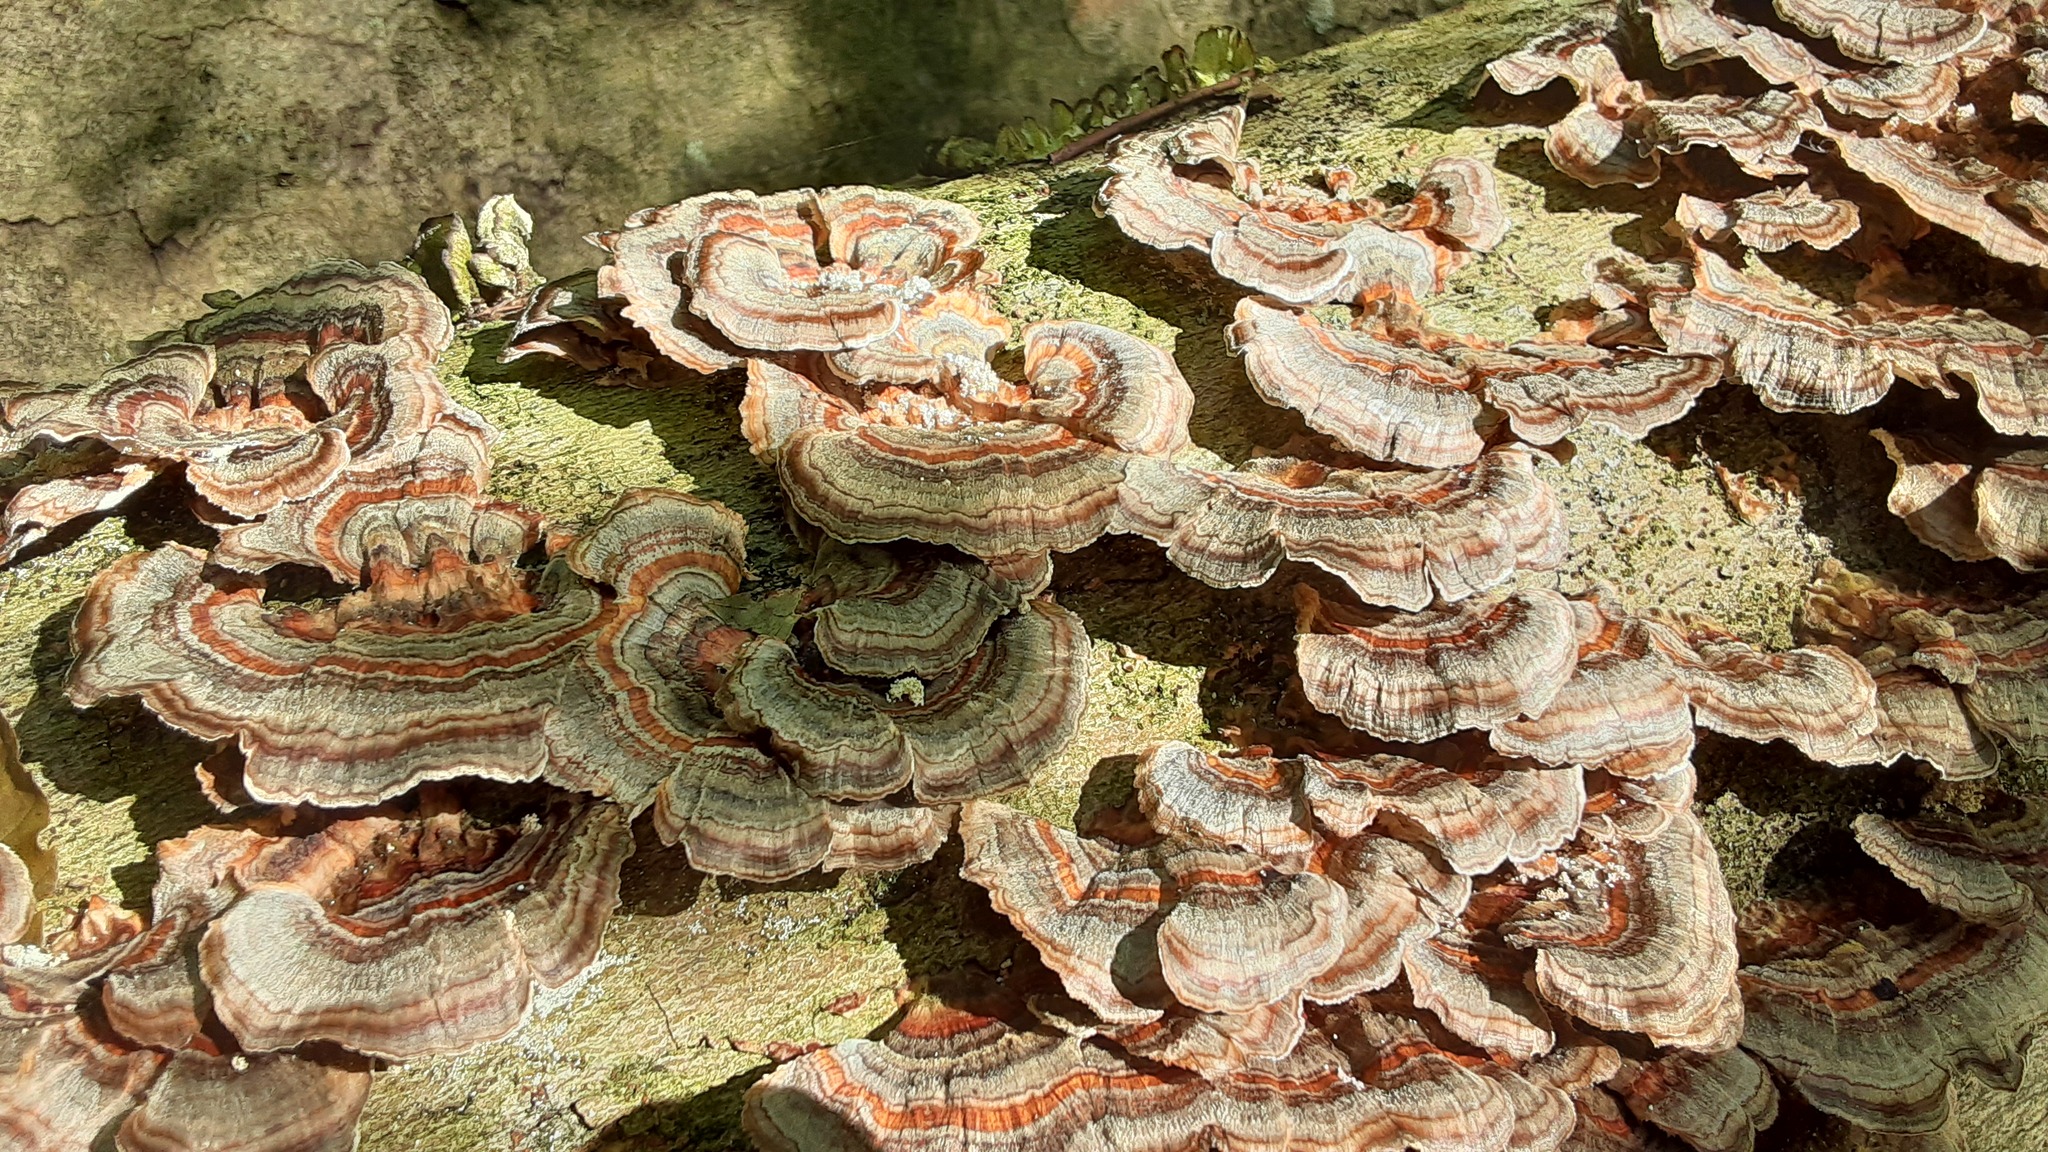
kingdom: Fungi
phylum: Basidiomycota
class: Agaricomycetes
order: Polyporales
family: Polyporaceae
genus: Trametes
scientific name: Trametes versicolor
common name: Turkeytail
